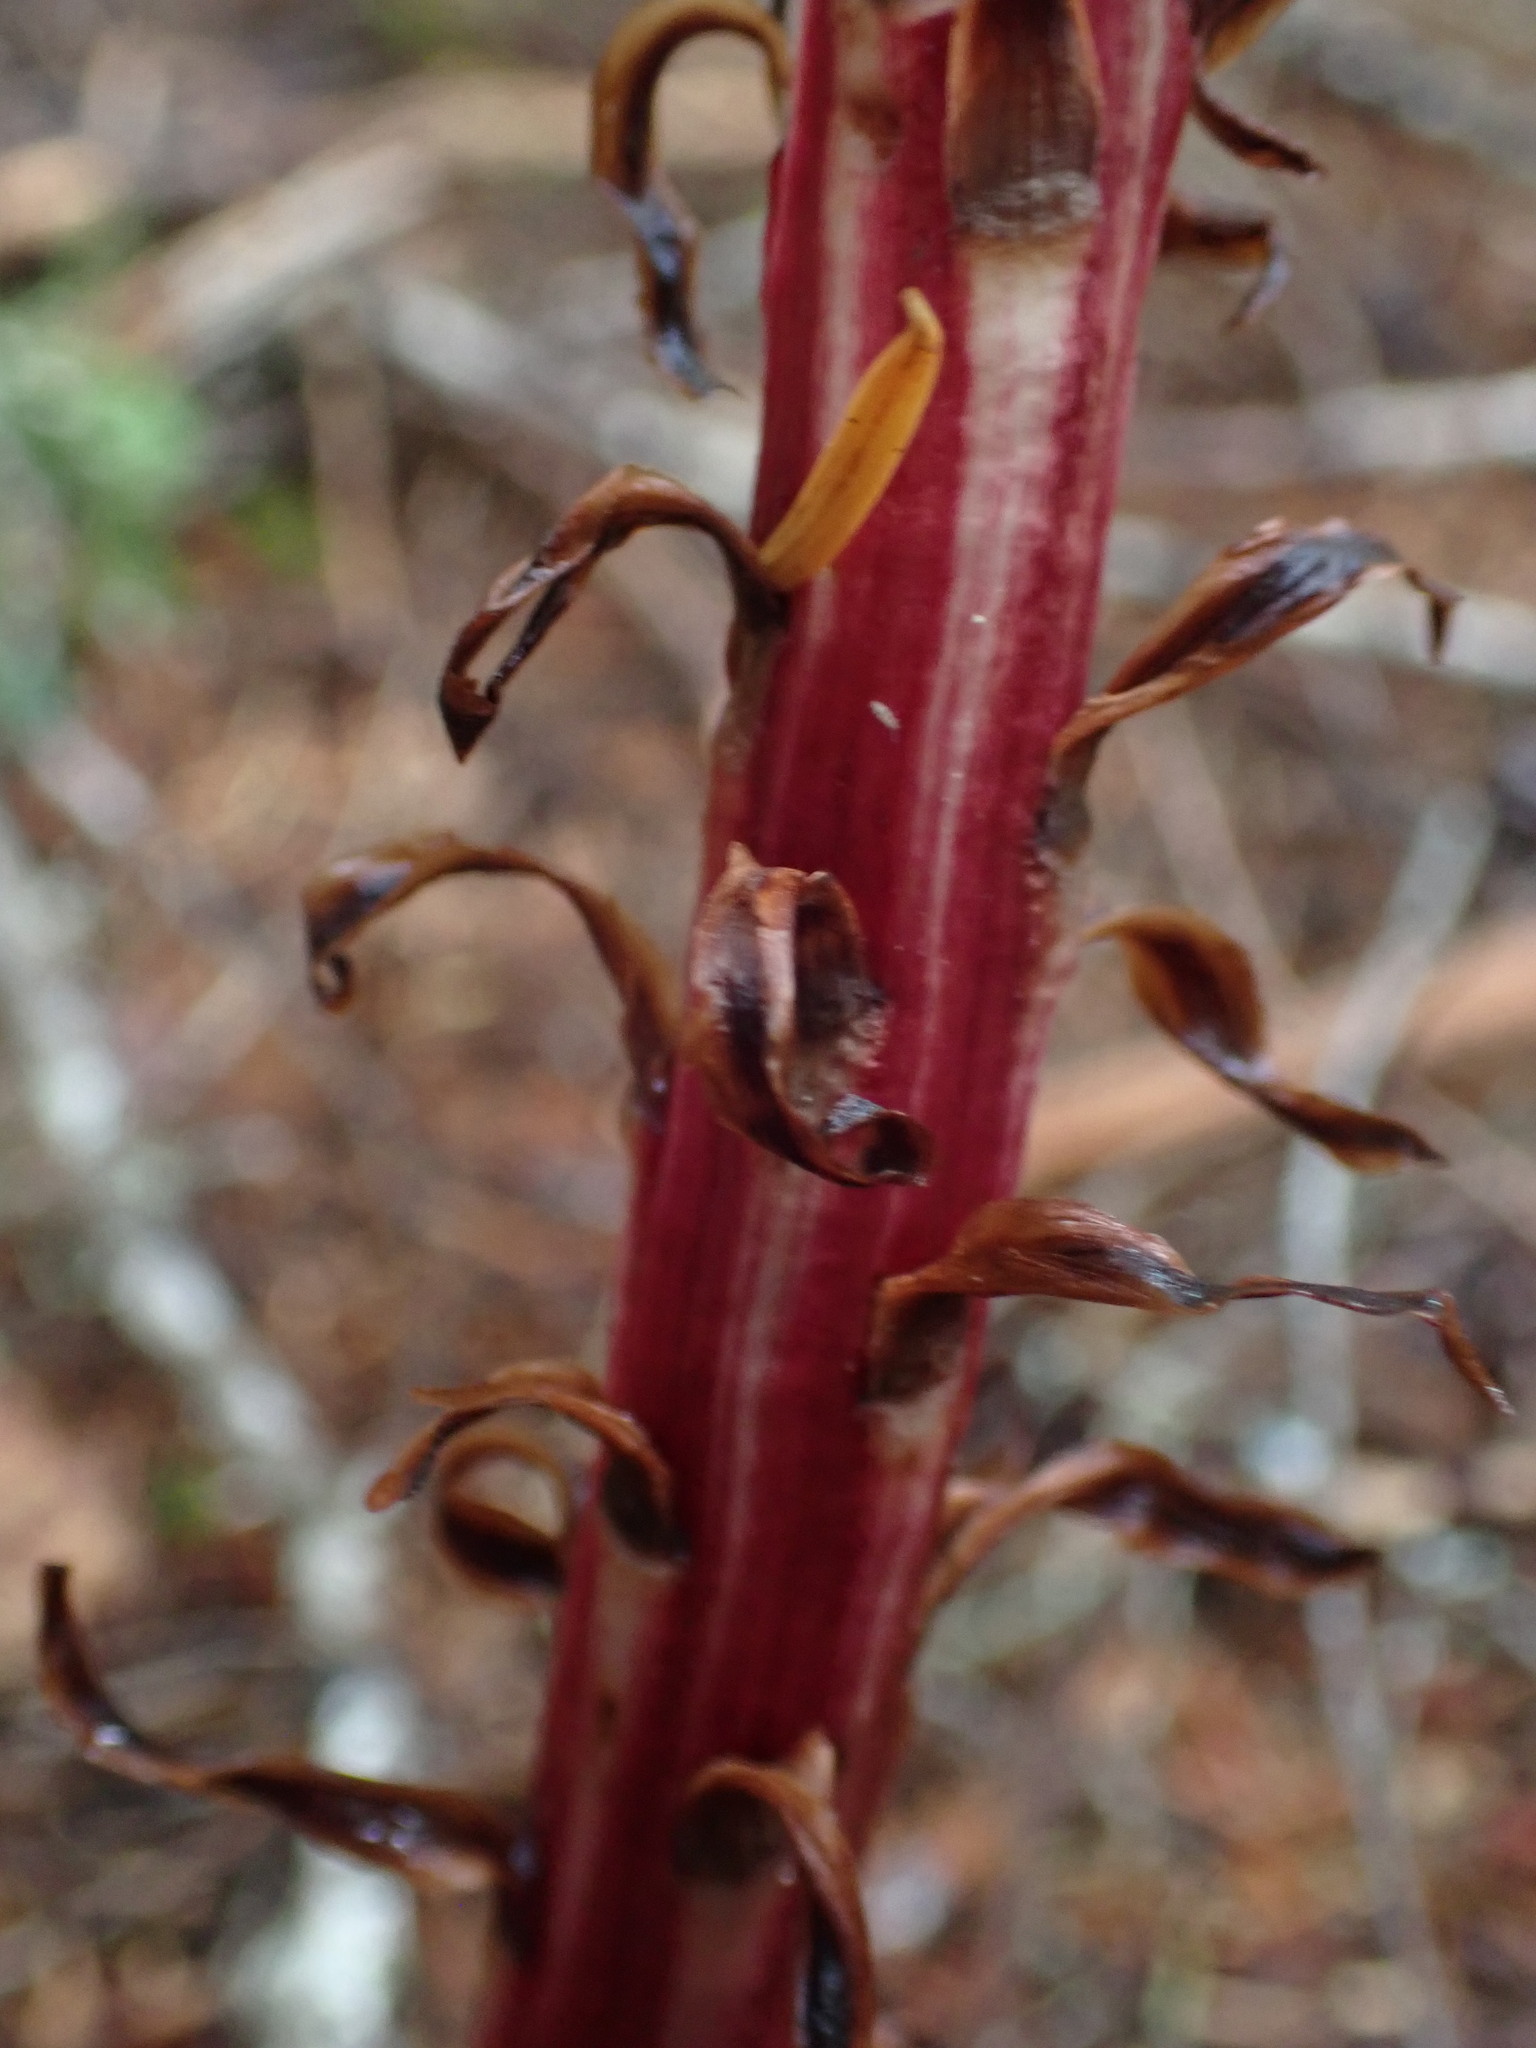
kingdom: Plantae
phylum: Tracheophyta
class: Magnoliopsida
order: Ericales
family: Ericaceae
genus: Allotropa
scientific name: Allotropa virgata
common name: Candy-striped allotropa
